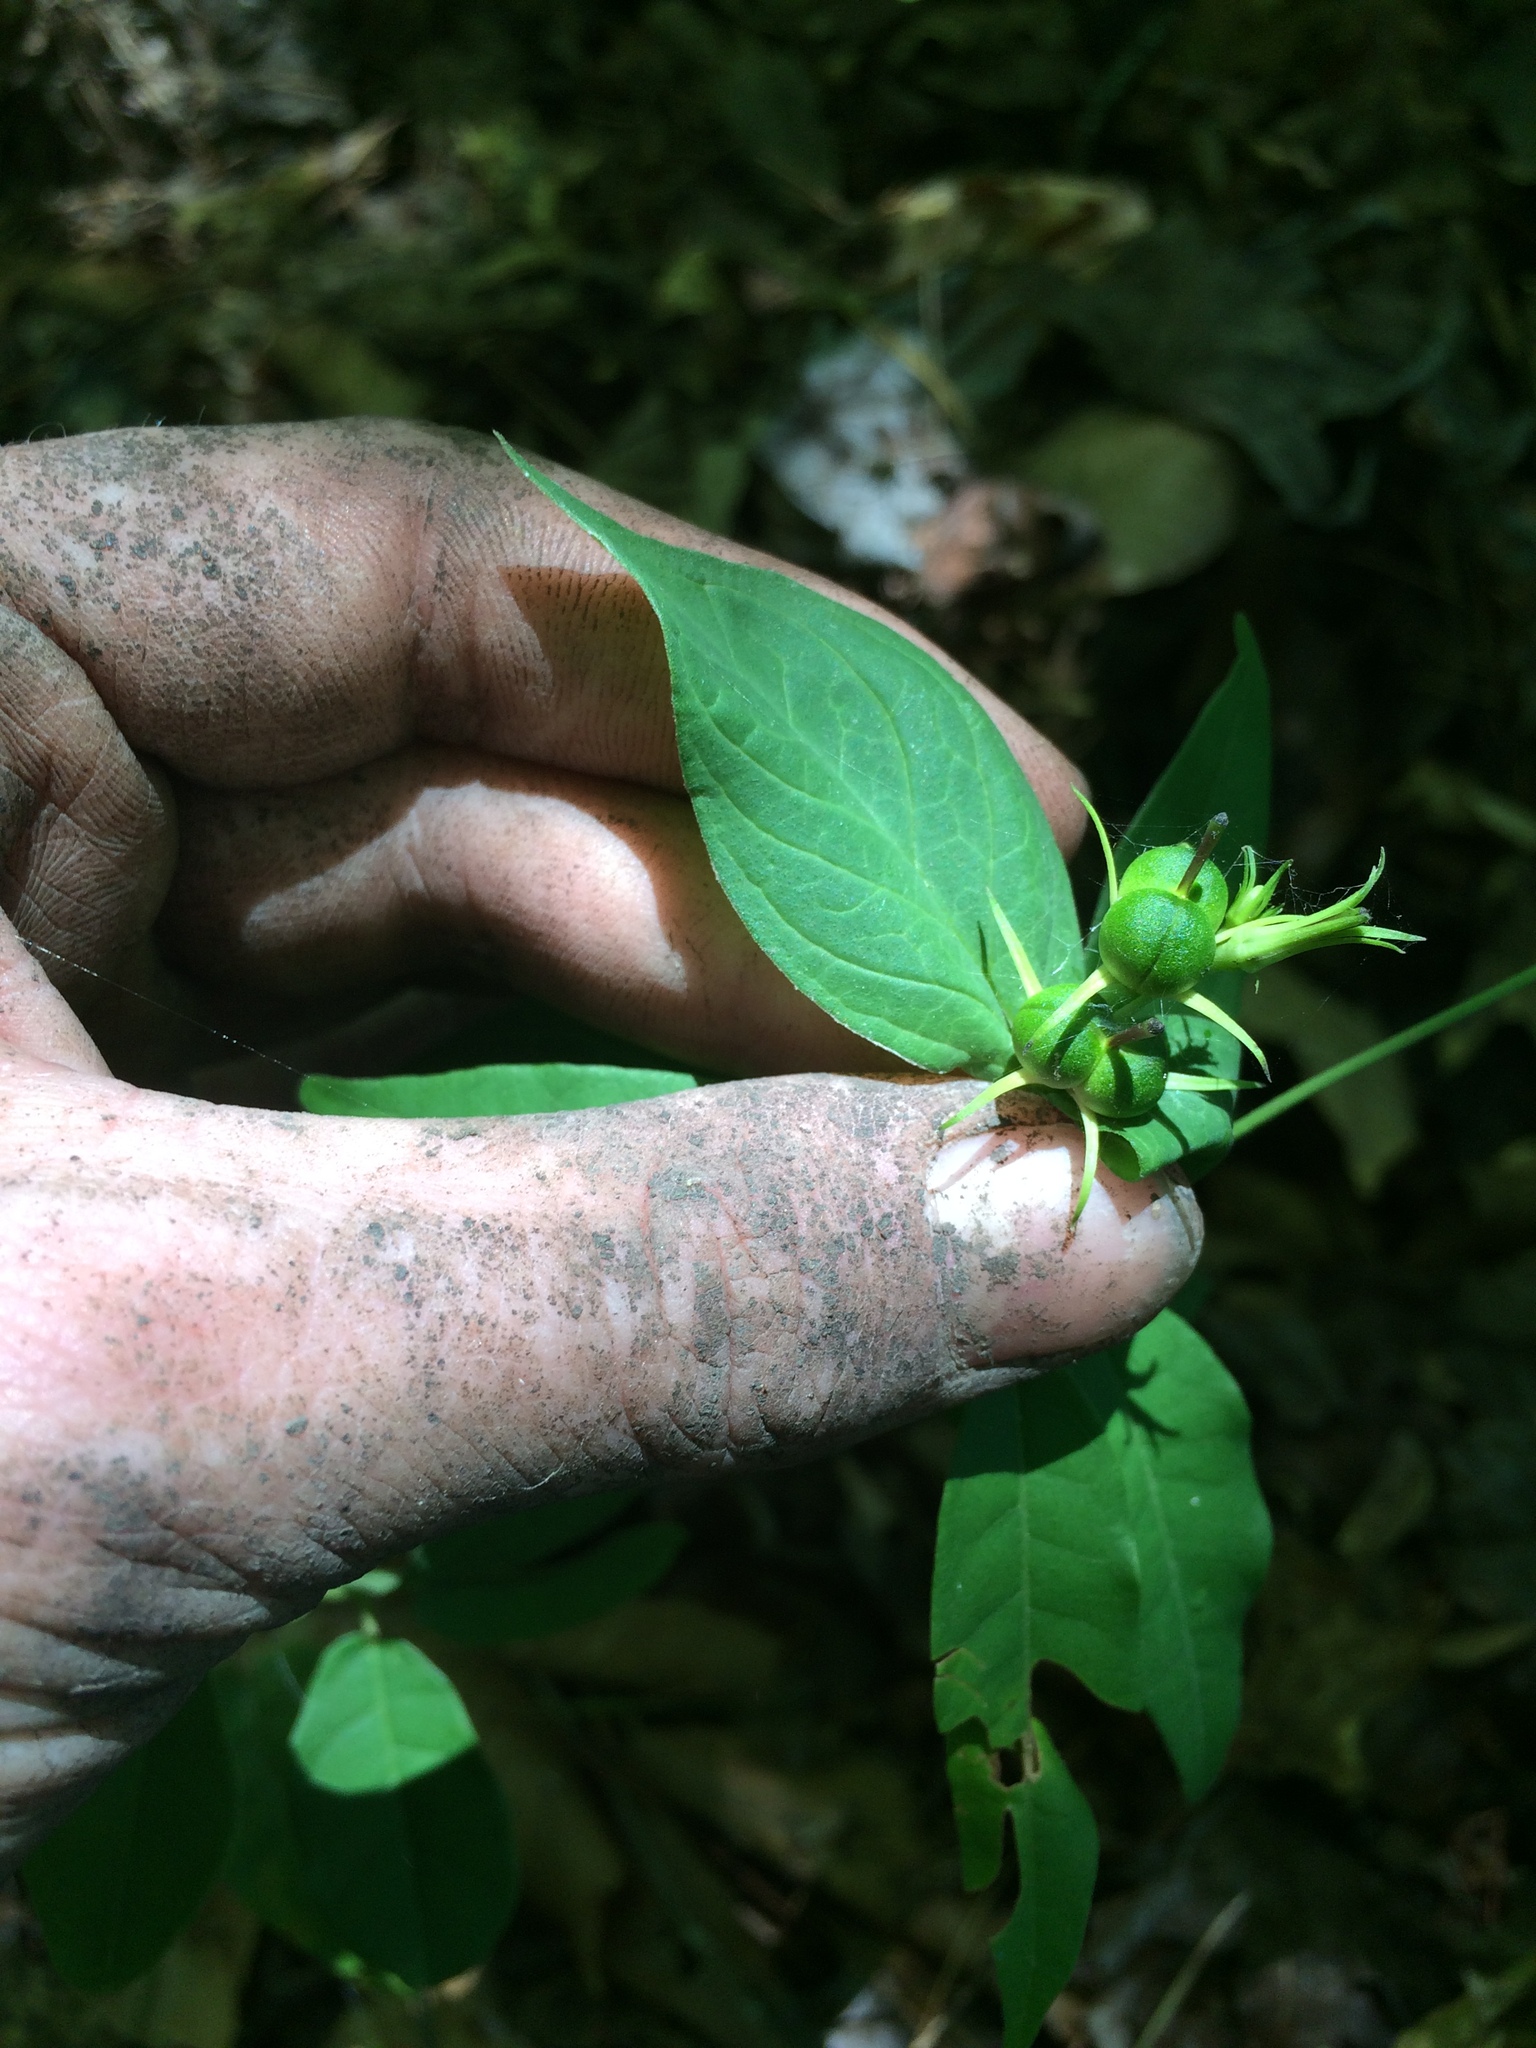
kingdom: Plantae
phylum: Tracheophyta
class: Magnoliopsida
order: Gentianales
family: Loganiaceae
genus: Spigelia
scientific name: Spigelia marilandica
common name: Indian-pink
